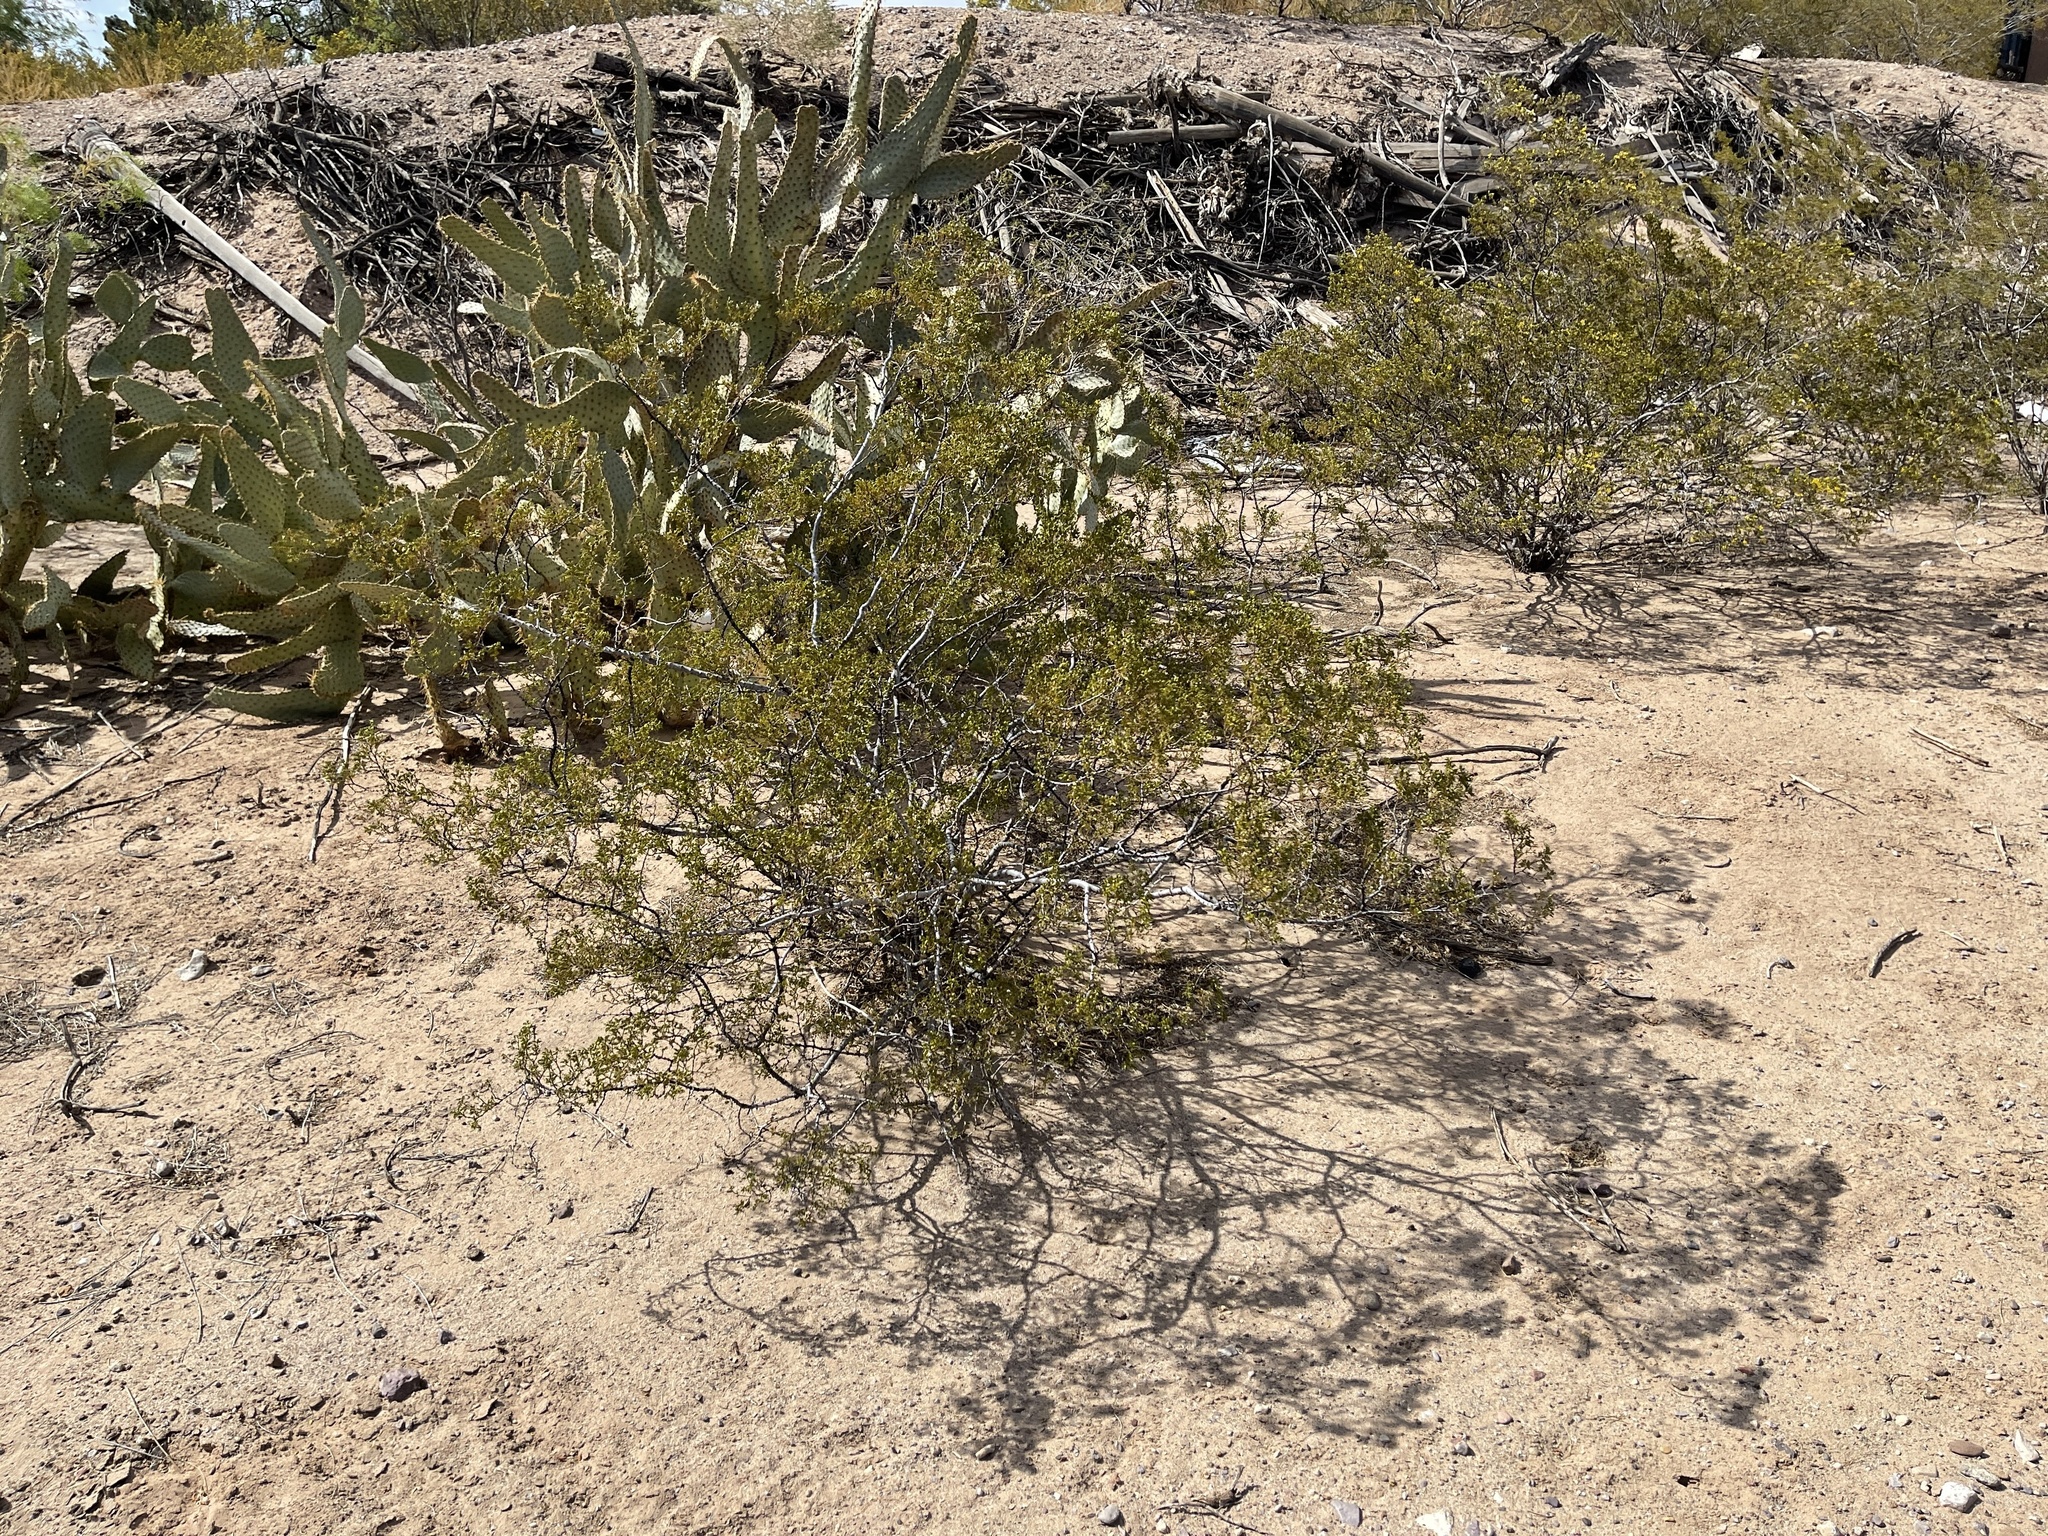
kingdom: Plantae
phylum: Tracheophyta
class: Magnoliopsida
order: Zygophyllales
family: Zygophyllaceae
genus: Larrea
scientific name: Larrea tridentata
